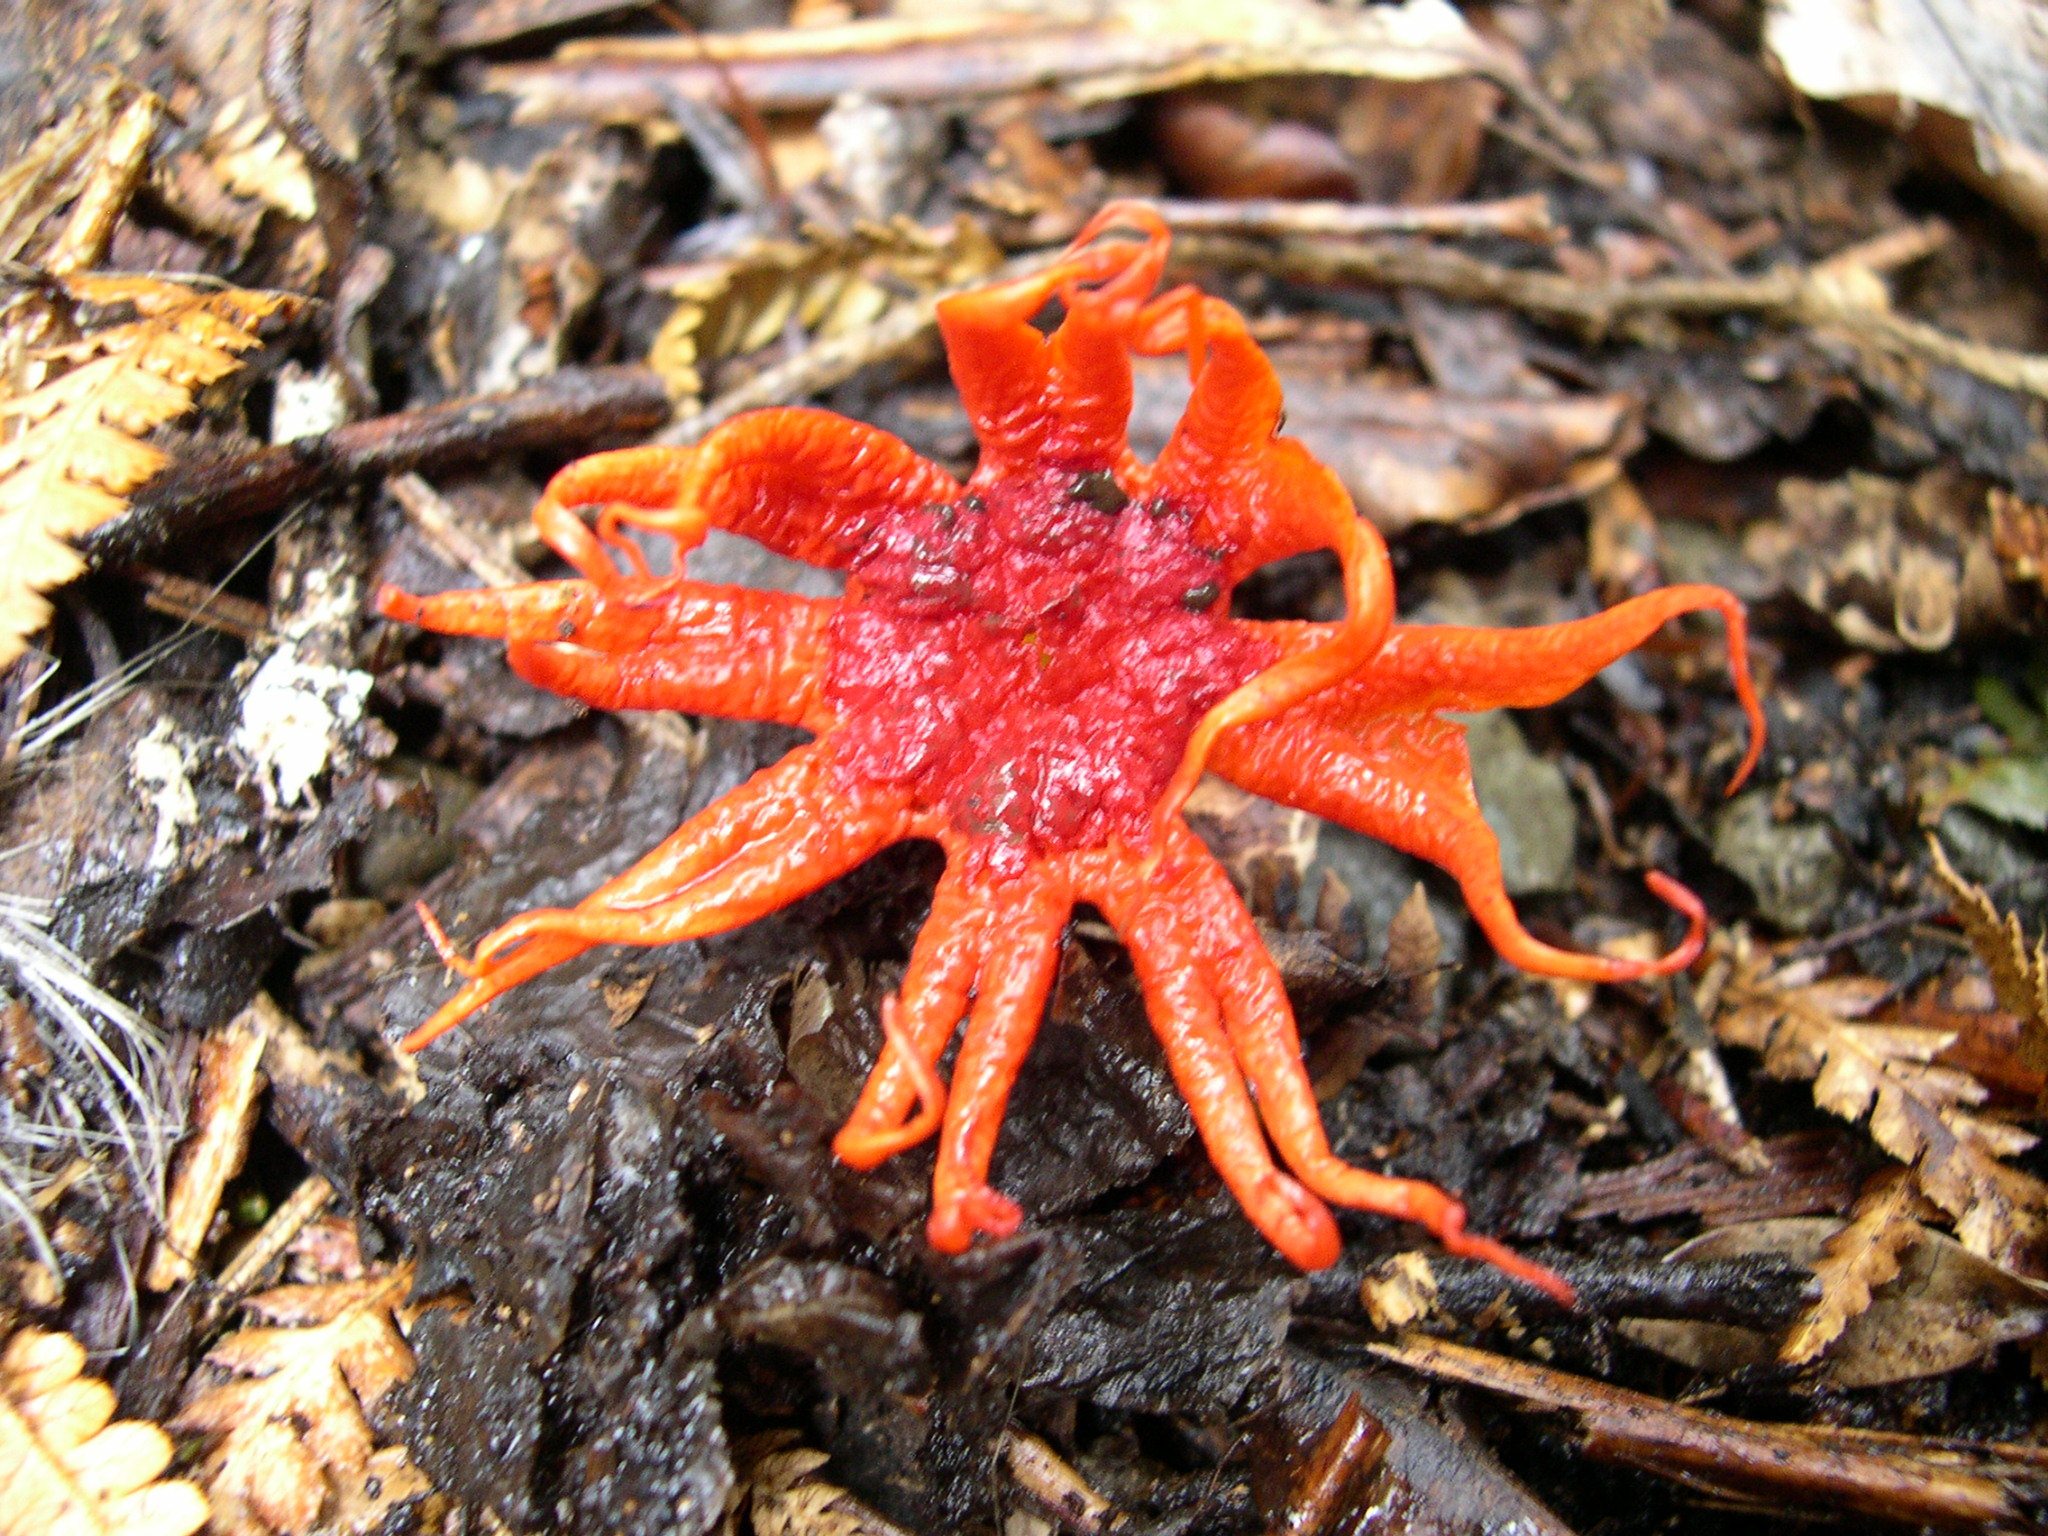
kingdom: Fungi
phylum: Basidiomycota
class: Agaricomycetes
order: Phallales
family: Phallaceae
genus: Aseroe
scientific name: Aseroe rubra
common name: Starfish fungus
